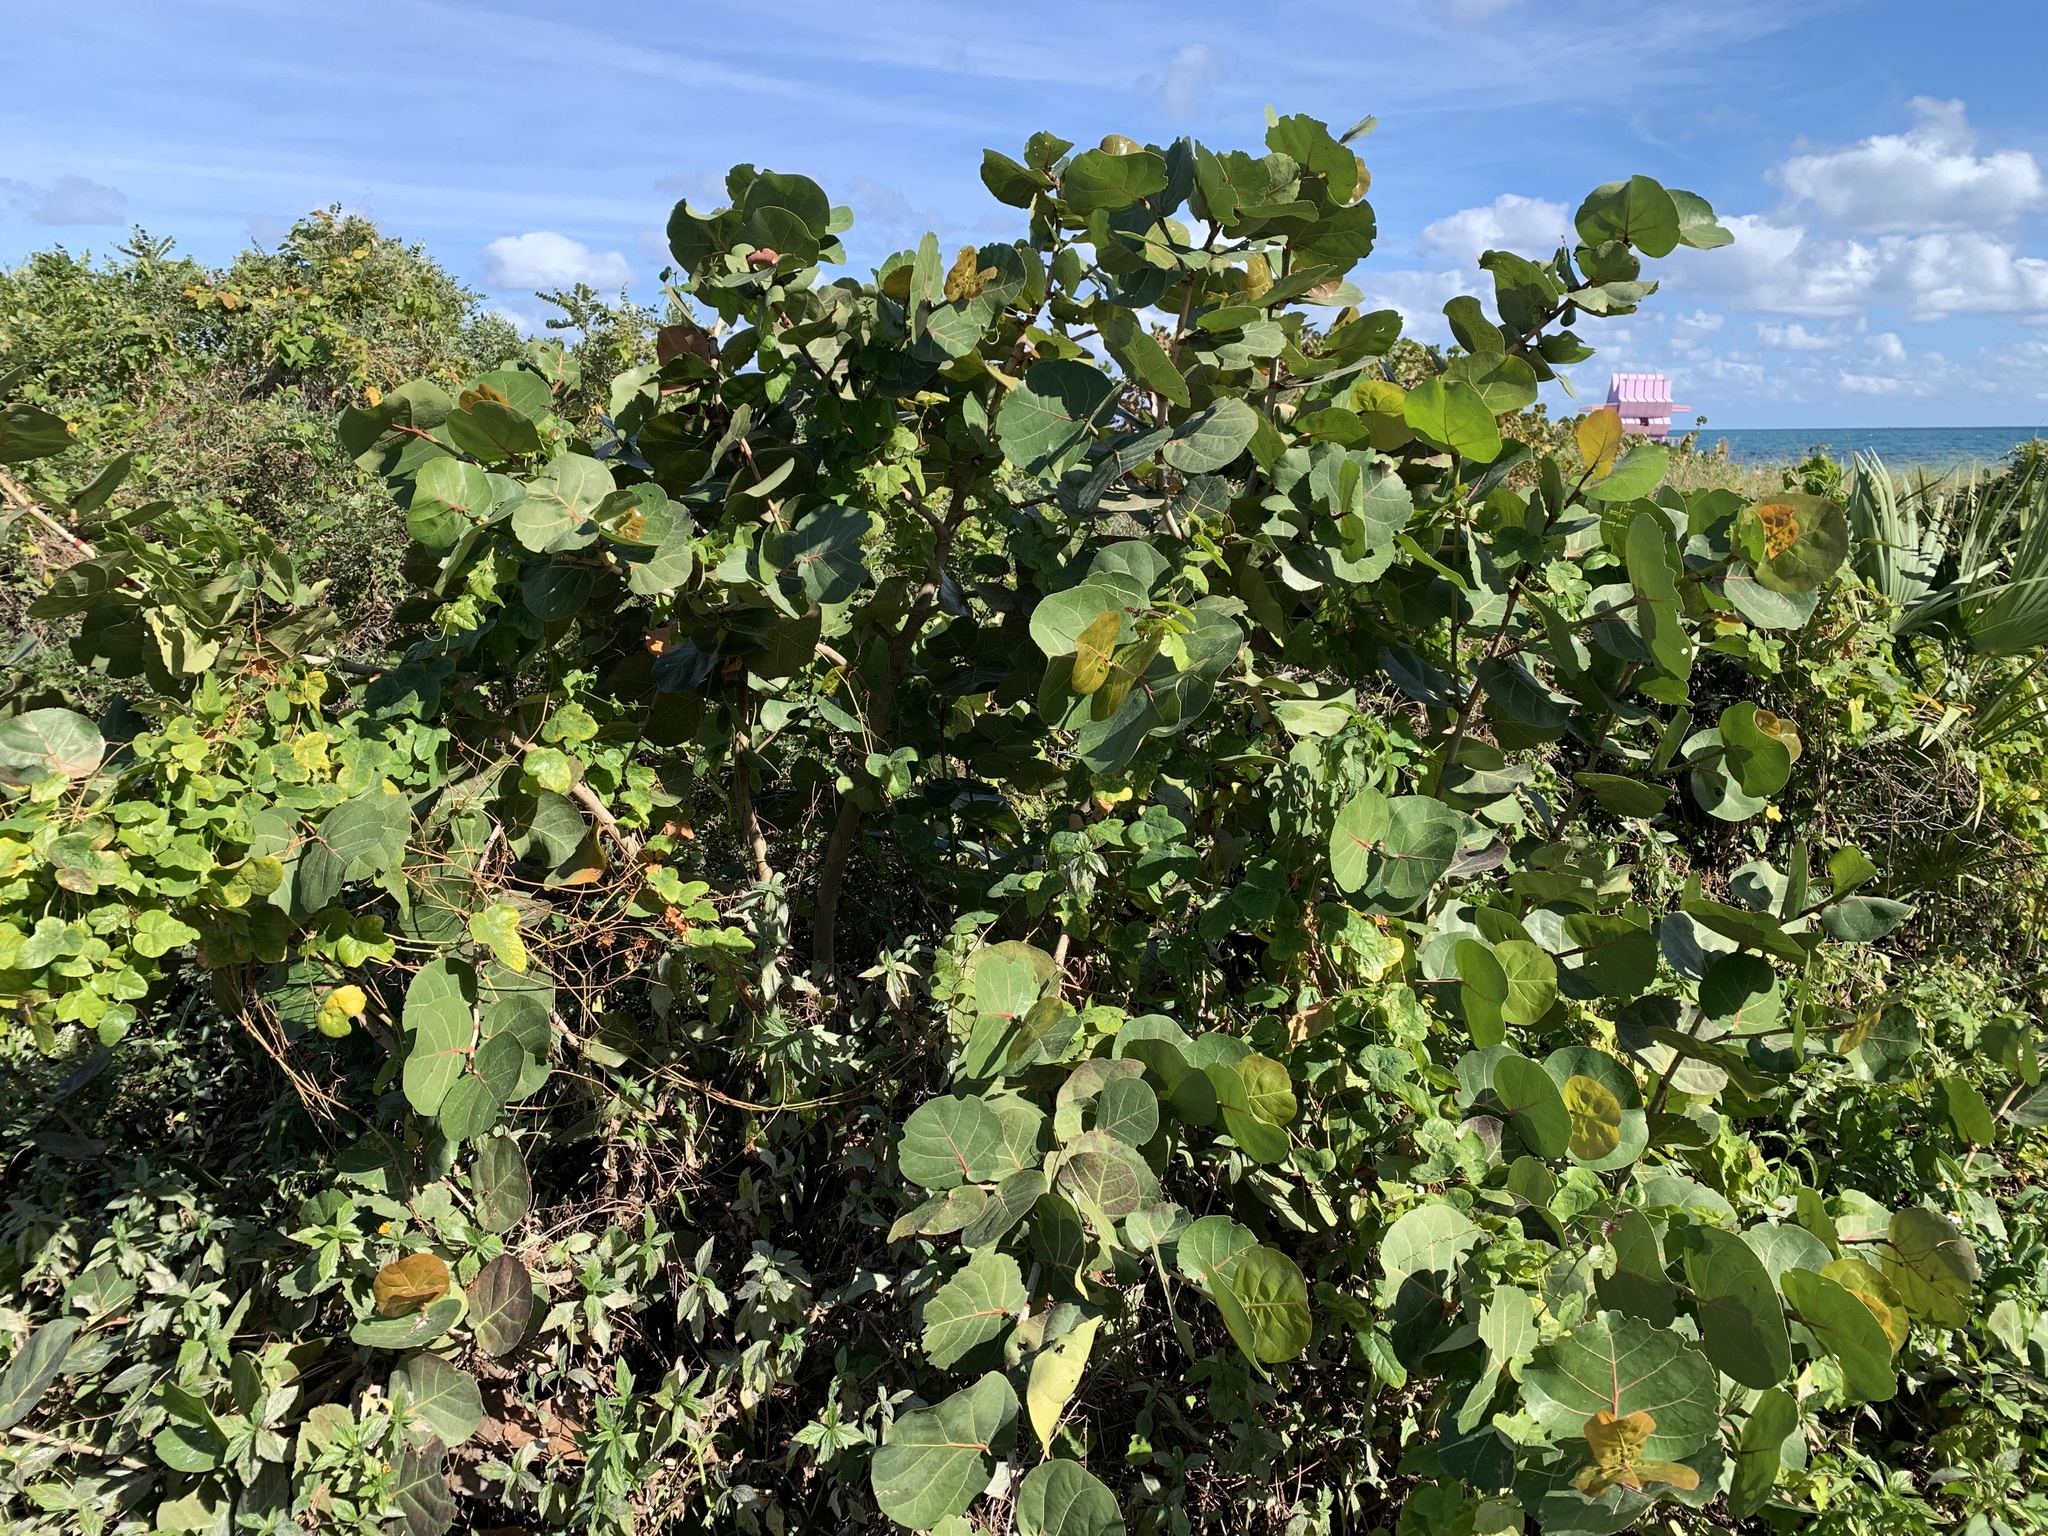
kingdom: Plantae
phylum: Tracheophyta
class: Magnoliopsida
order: Caryophyllales
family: Polygonaceae
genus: Coccoloba
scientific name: Coccoloba uvifera
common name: Seagrape
